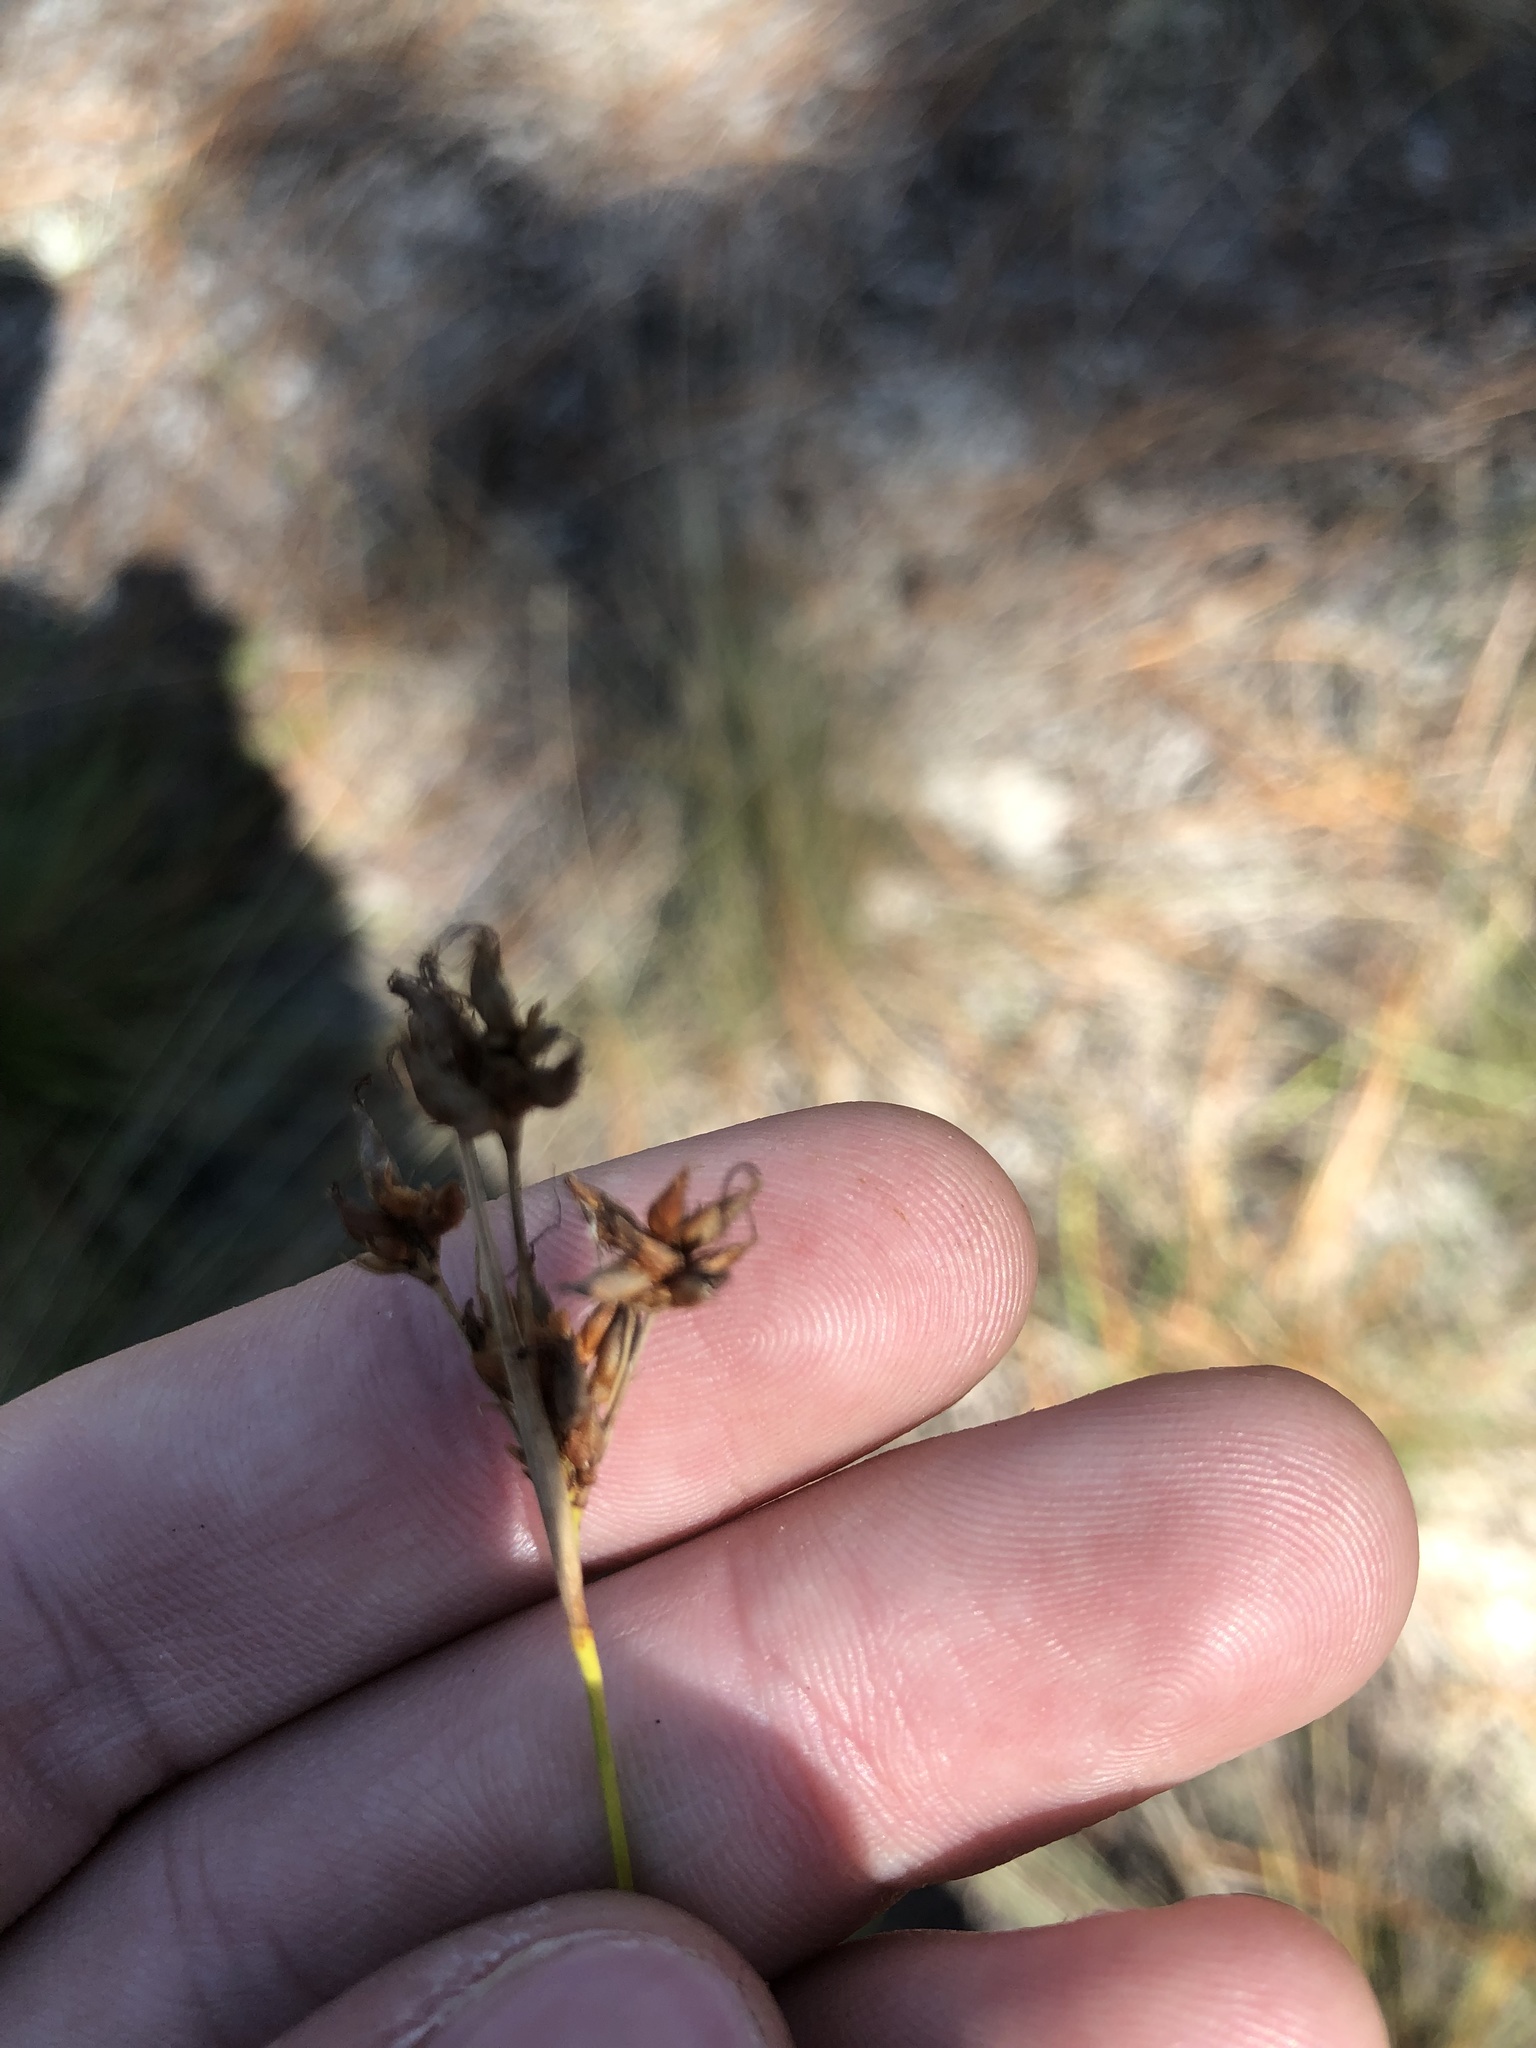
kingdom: Plantae
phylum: Tracheophyta
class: Liliopsida
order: Poales
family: Cyperaceae
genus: Rhynchospora
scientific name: Rhynchospora grayi
